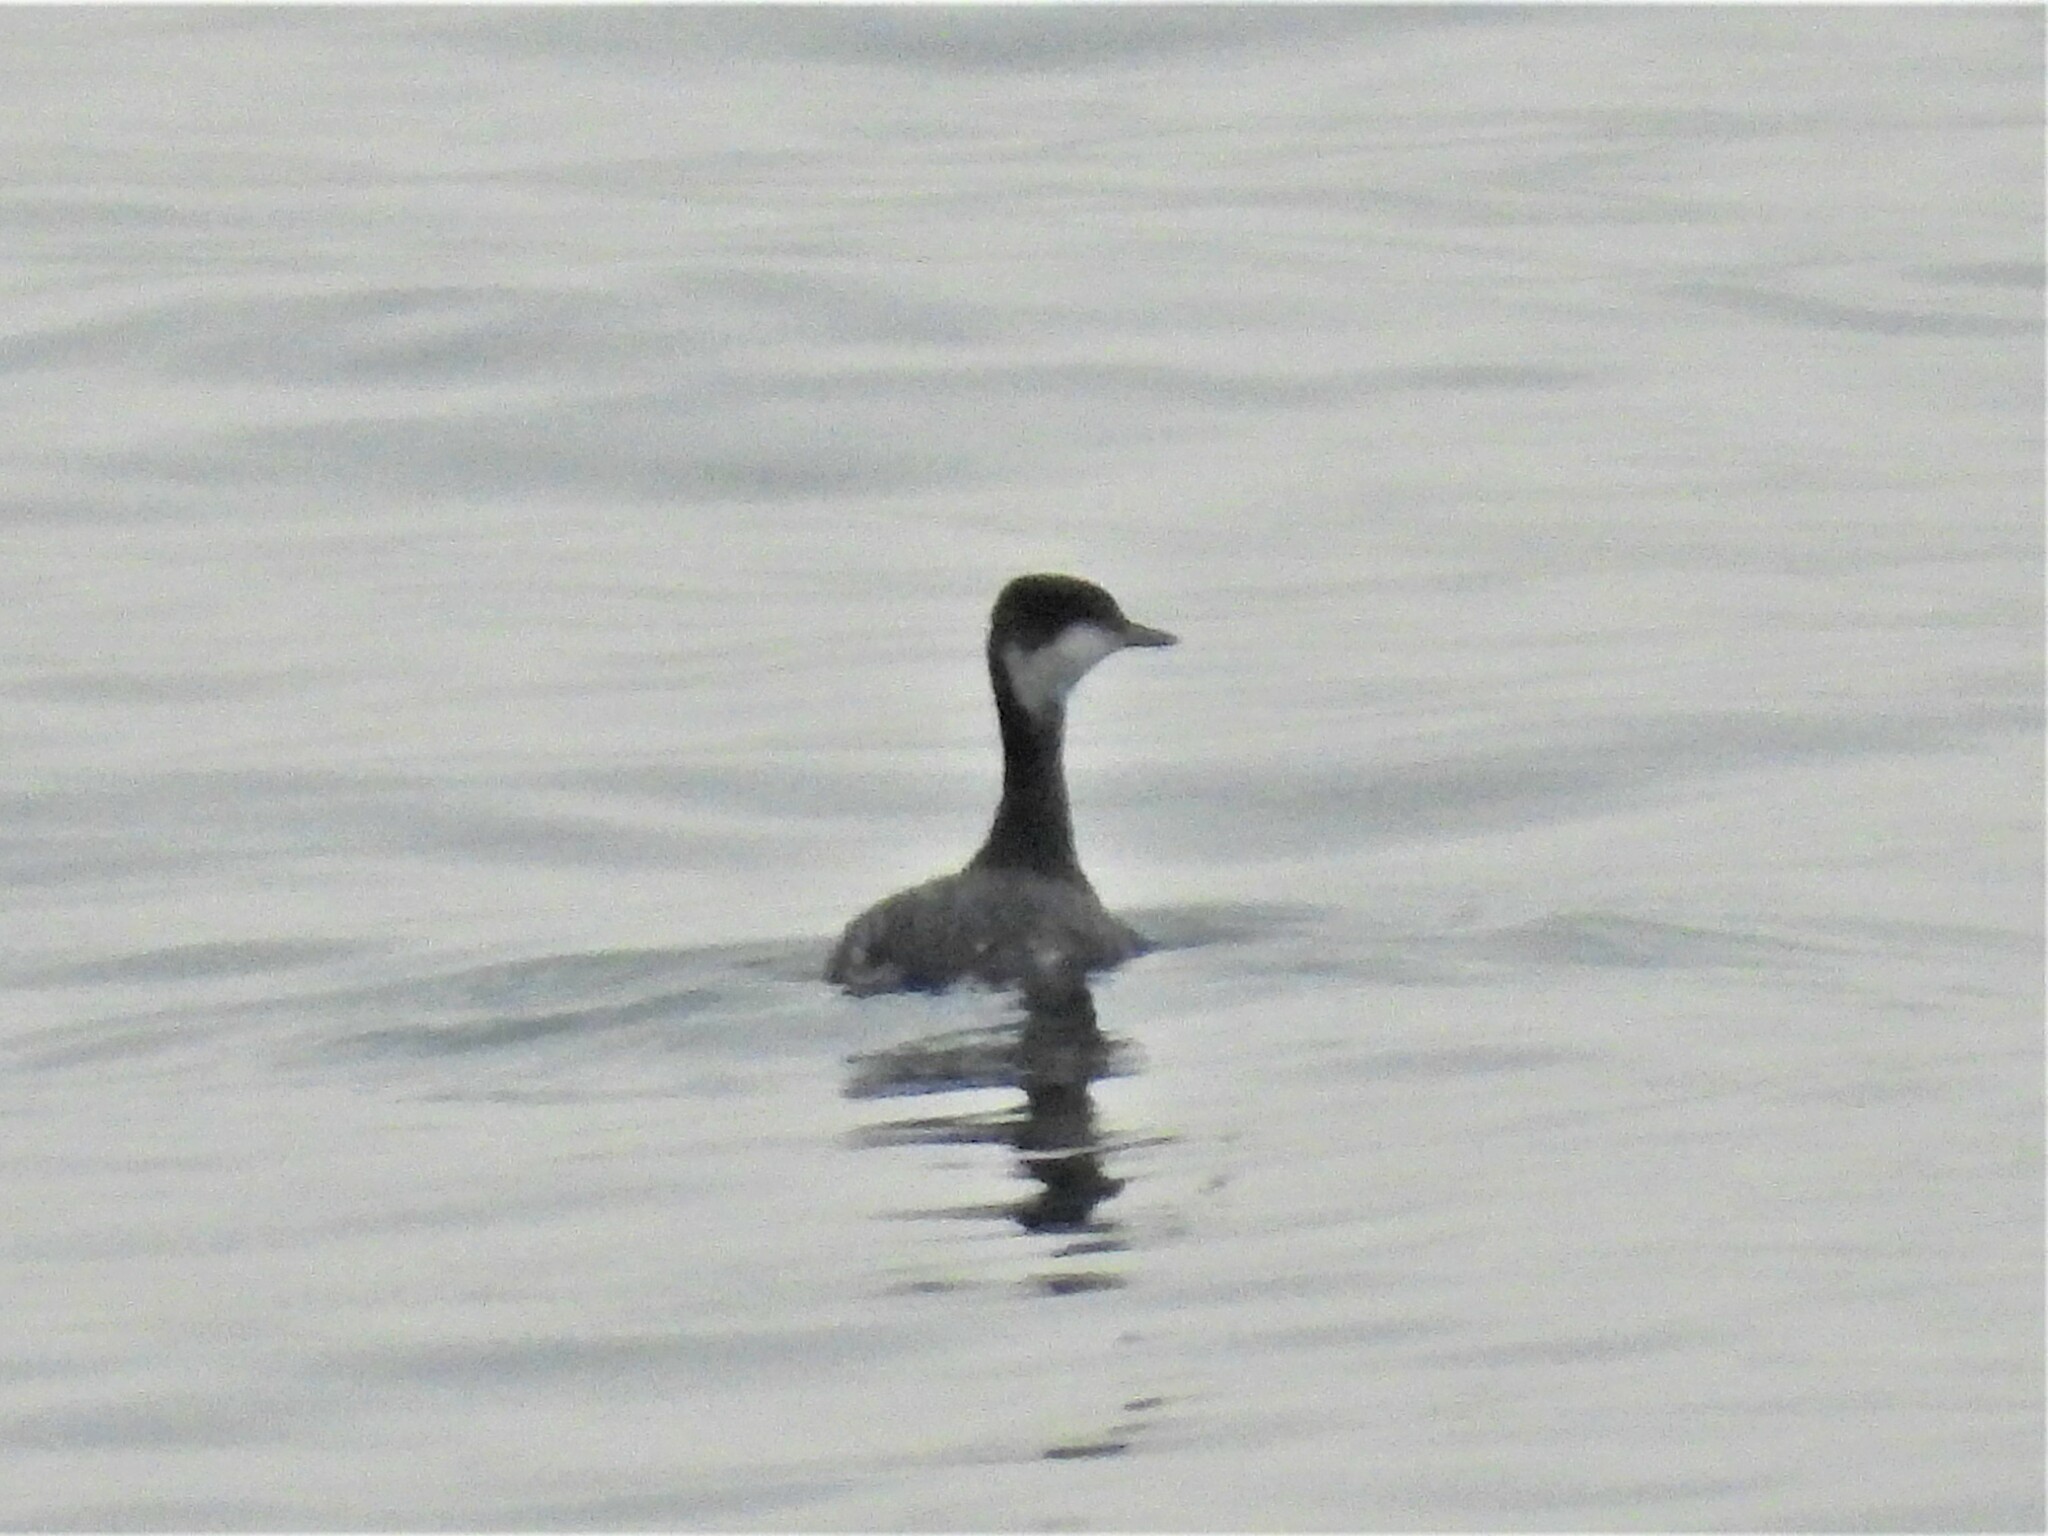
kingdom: Animalia
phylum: Chordata
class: Aves
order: Podicipediformes
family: Podicipedidae
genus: Podiceps
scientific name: Podiceps auritus
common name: Horned grebe
